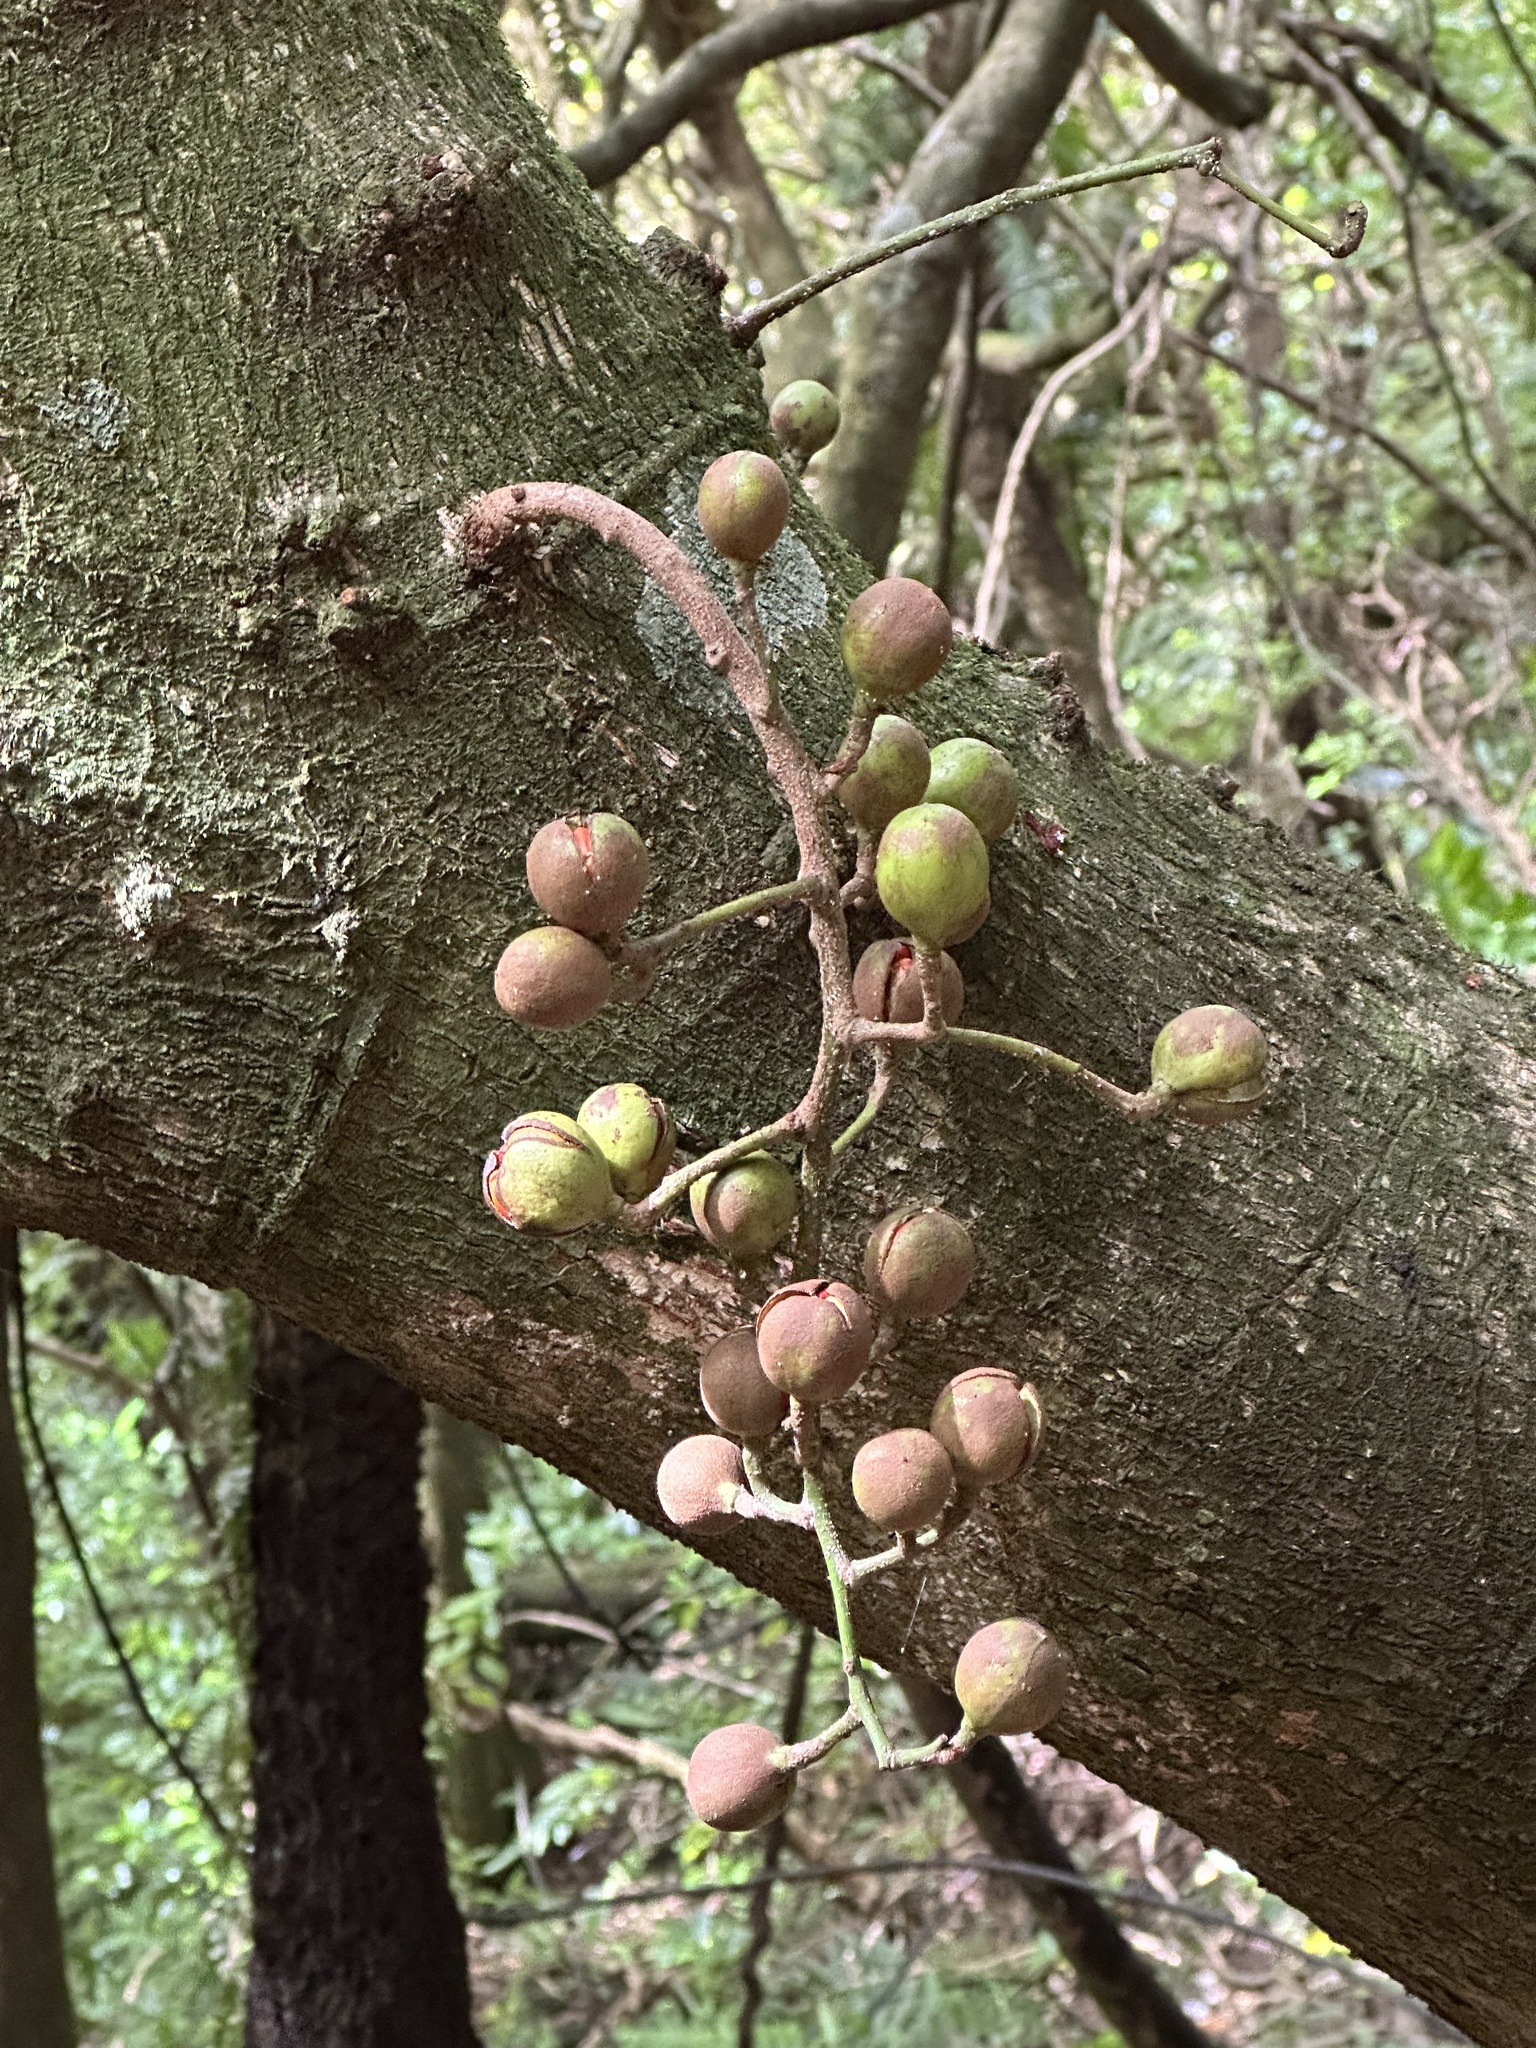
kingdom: Plantae
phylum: Tracheophyta
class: Magnoliopsida
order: Sapindales
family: Meliaceae
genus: Didymocheton
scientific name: Didymocheton spectabilis
